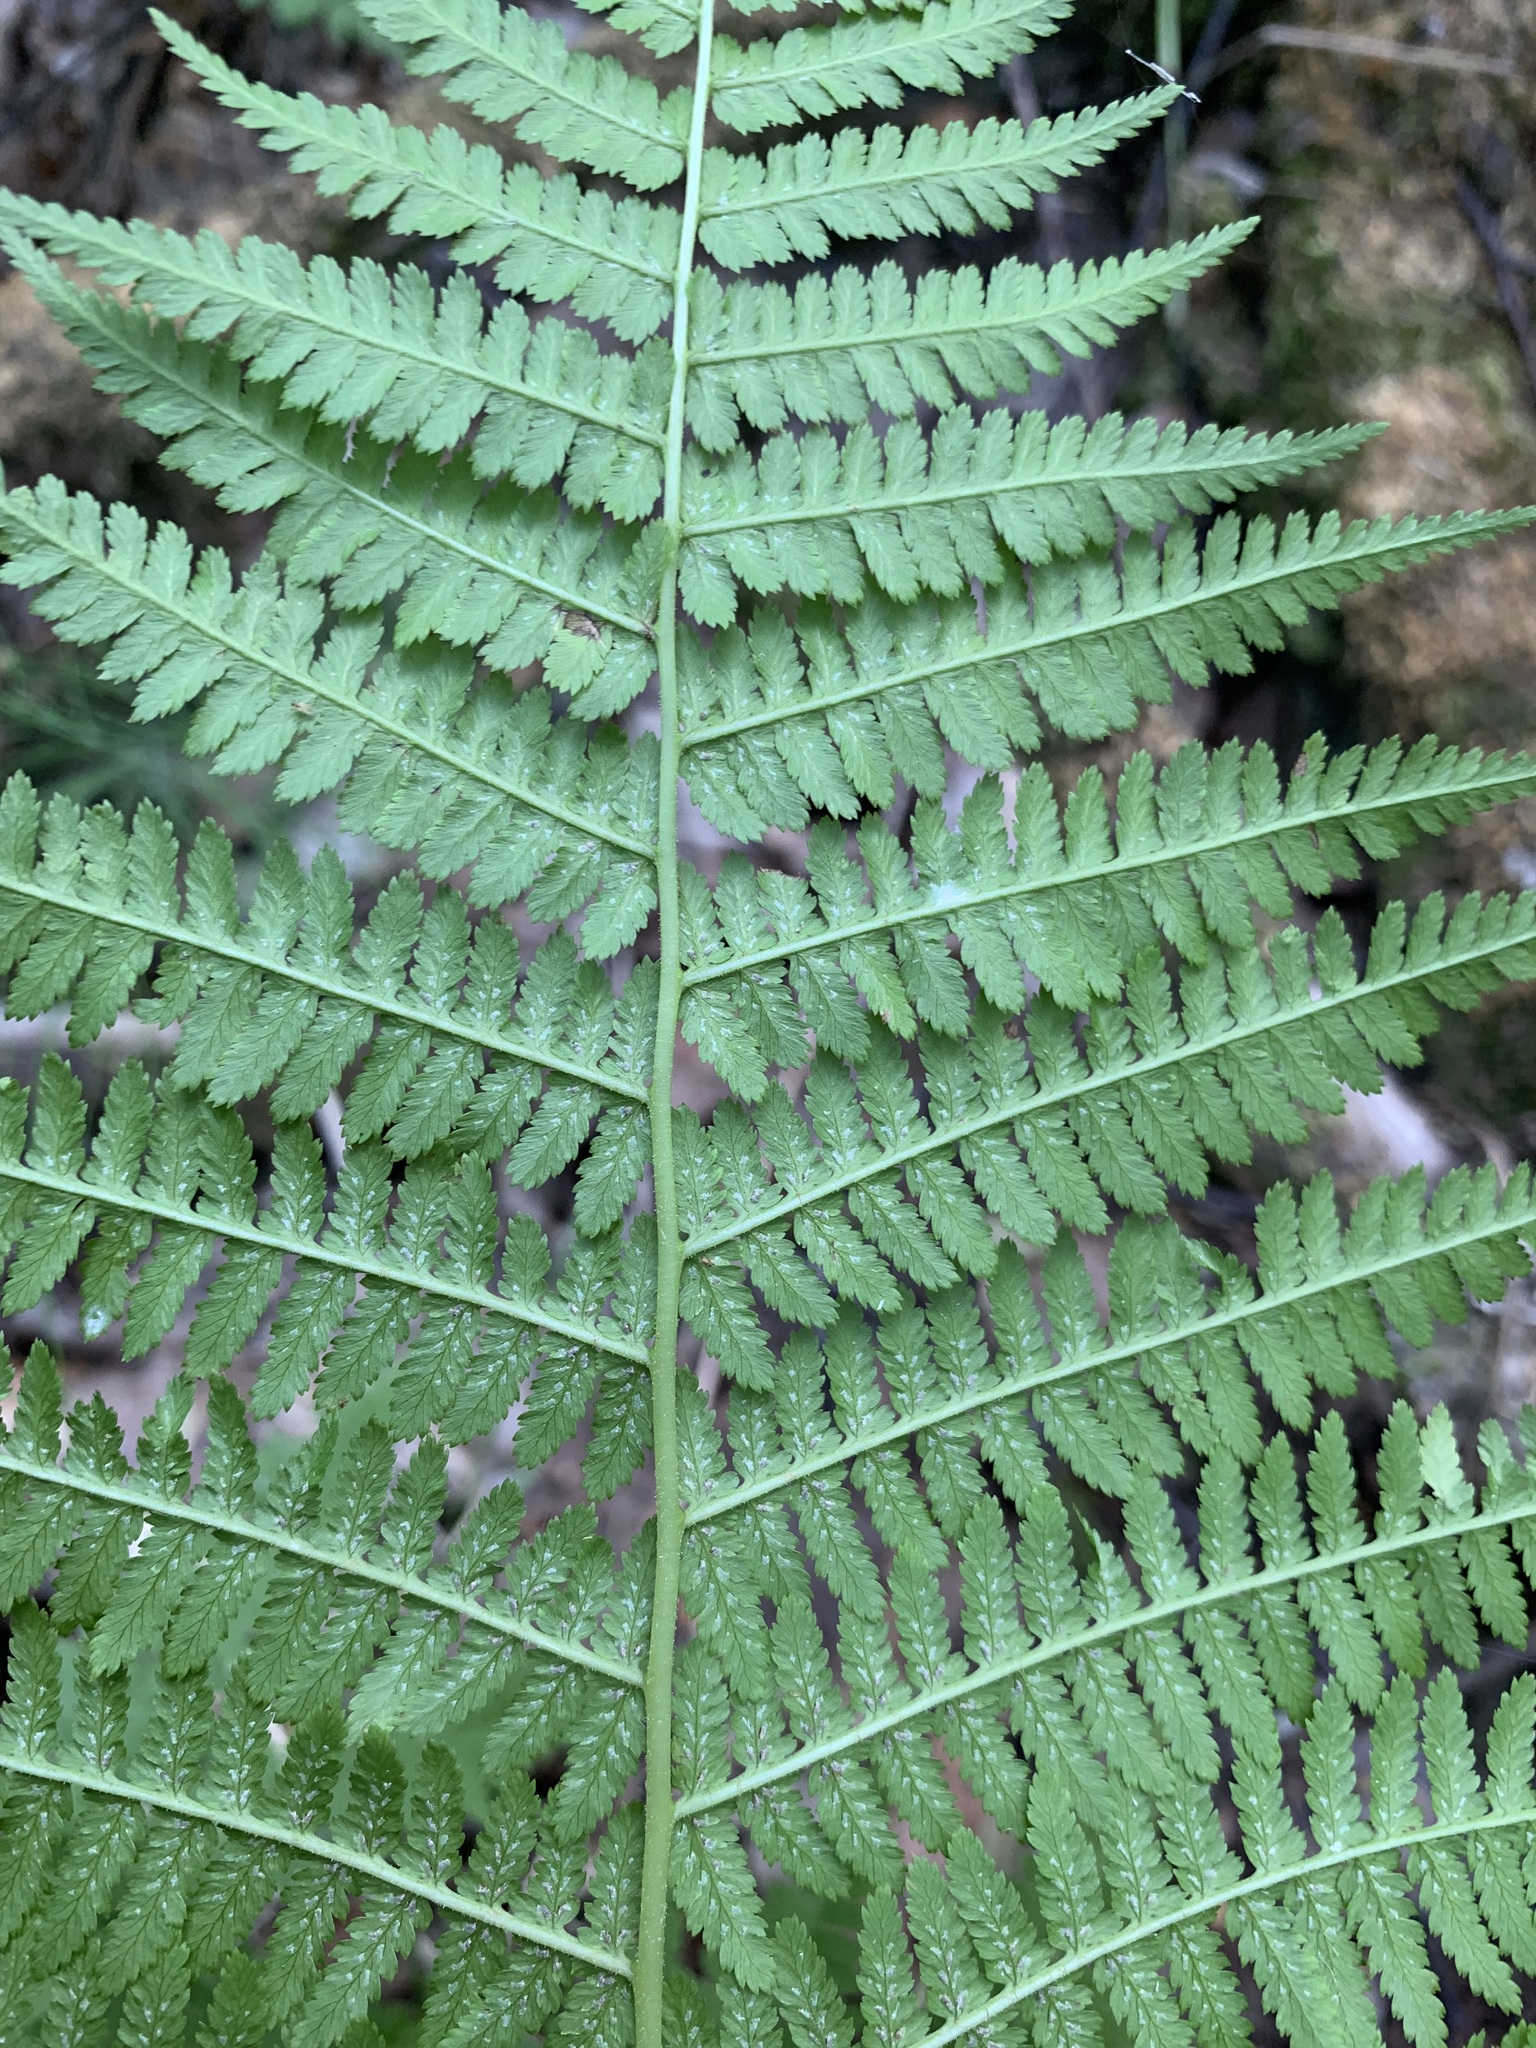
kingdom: Plantae
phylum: Tracheophyta
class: Polypodiopsida
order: Polypodiales
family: Athyriaceae
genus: Athyrium
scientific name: Athyrium filix-femina
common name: Lady fern
